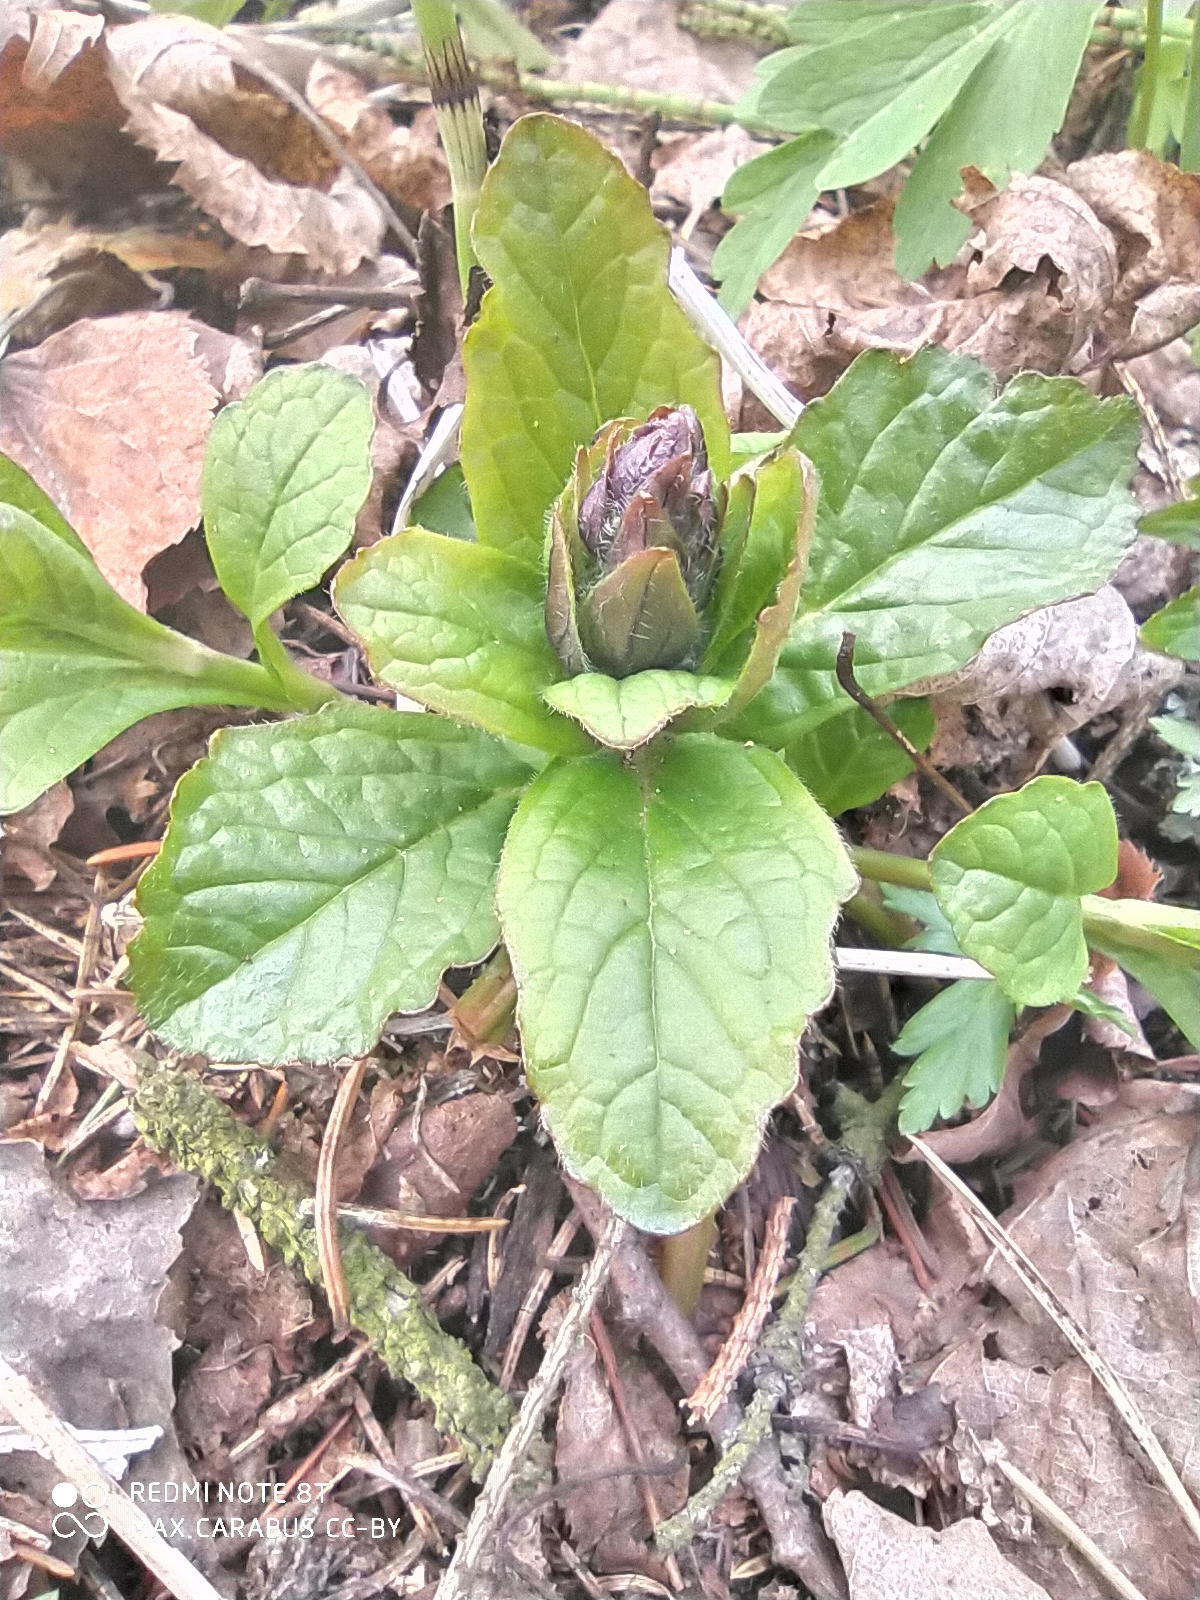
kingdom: Plantae
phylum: Tracheophyta
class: Magnoliopsida
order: Lamiales
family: Lamiaceae
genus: Ajuga
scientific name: Ajuga reptans
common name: Bugle
